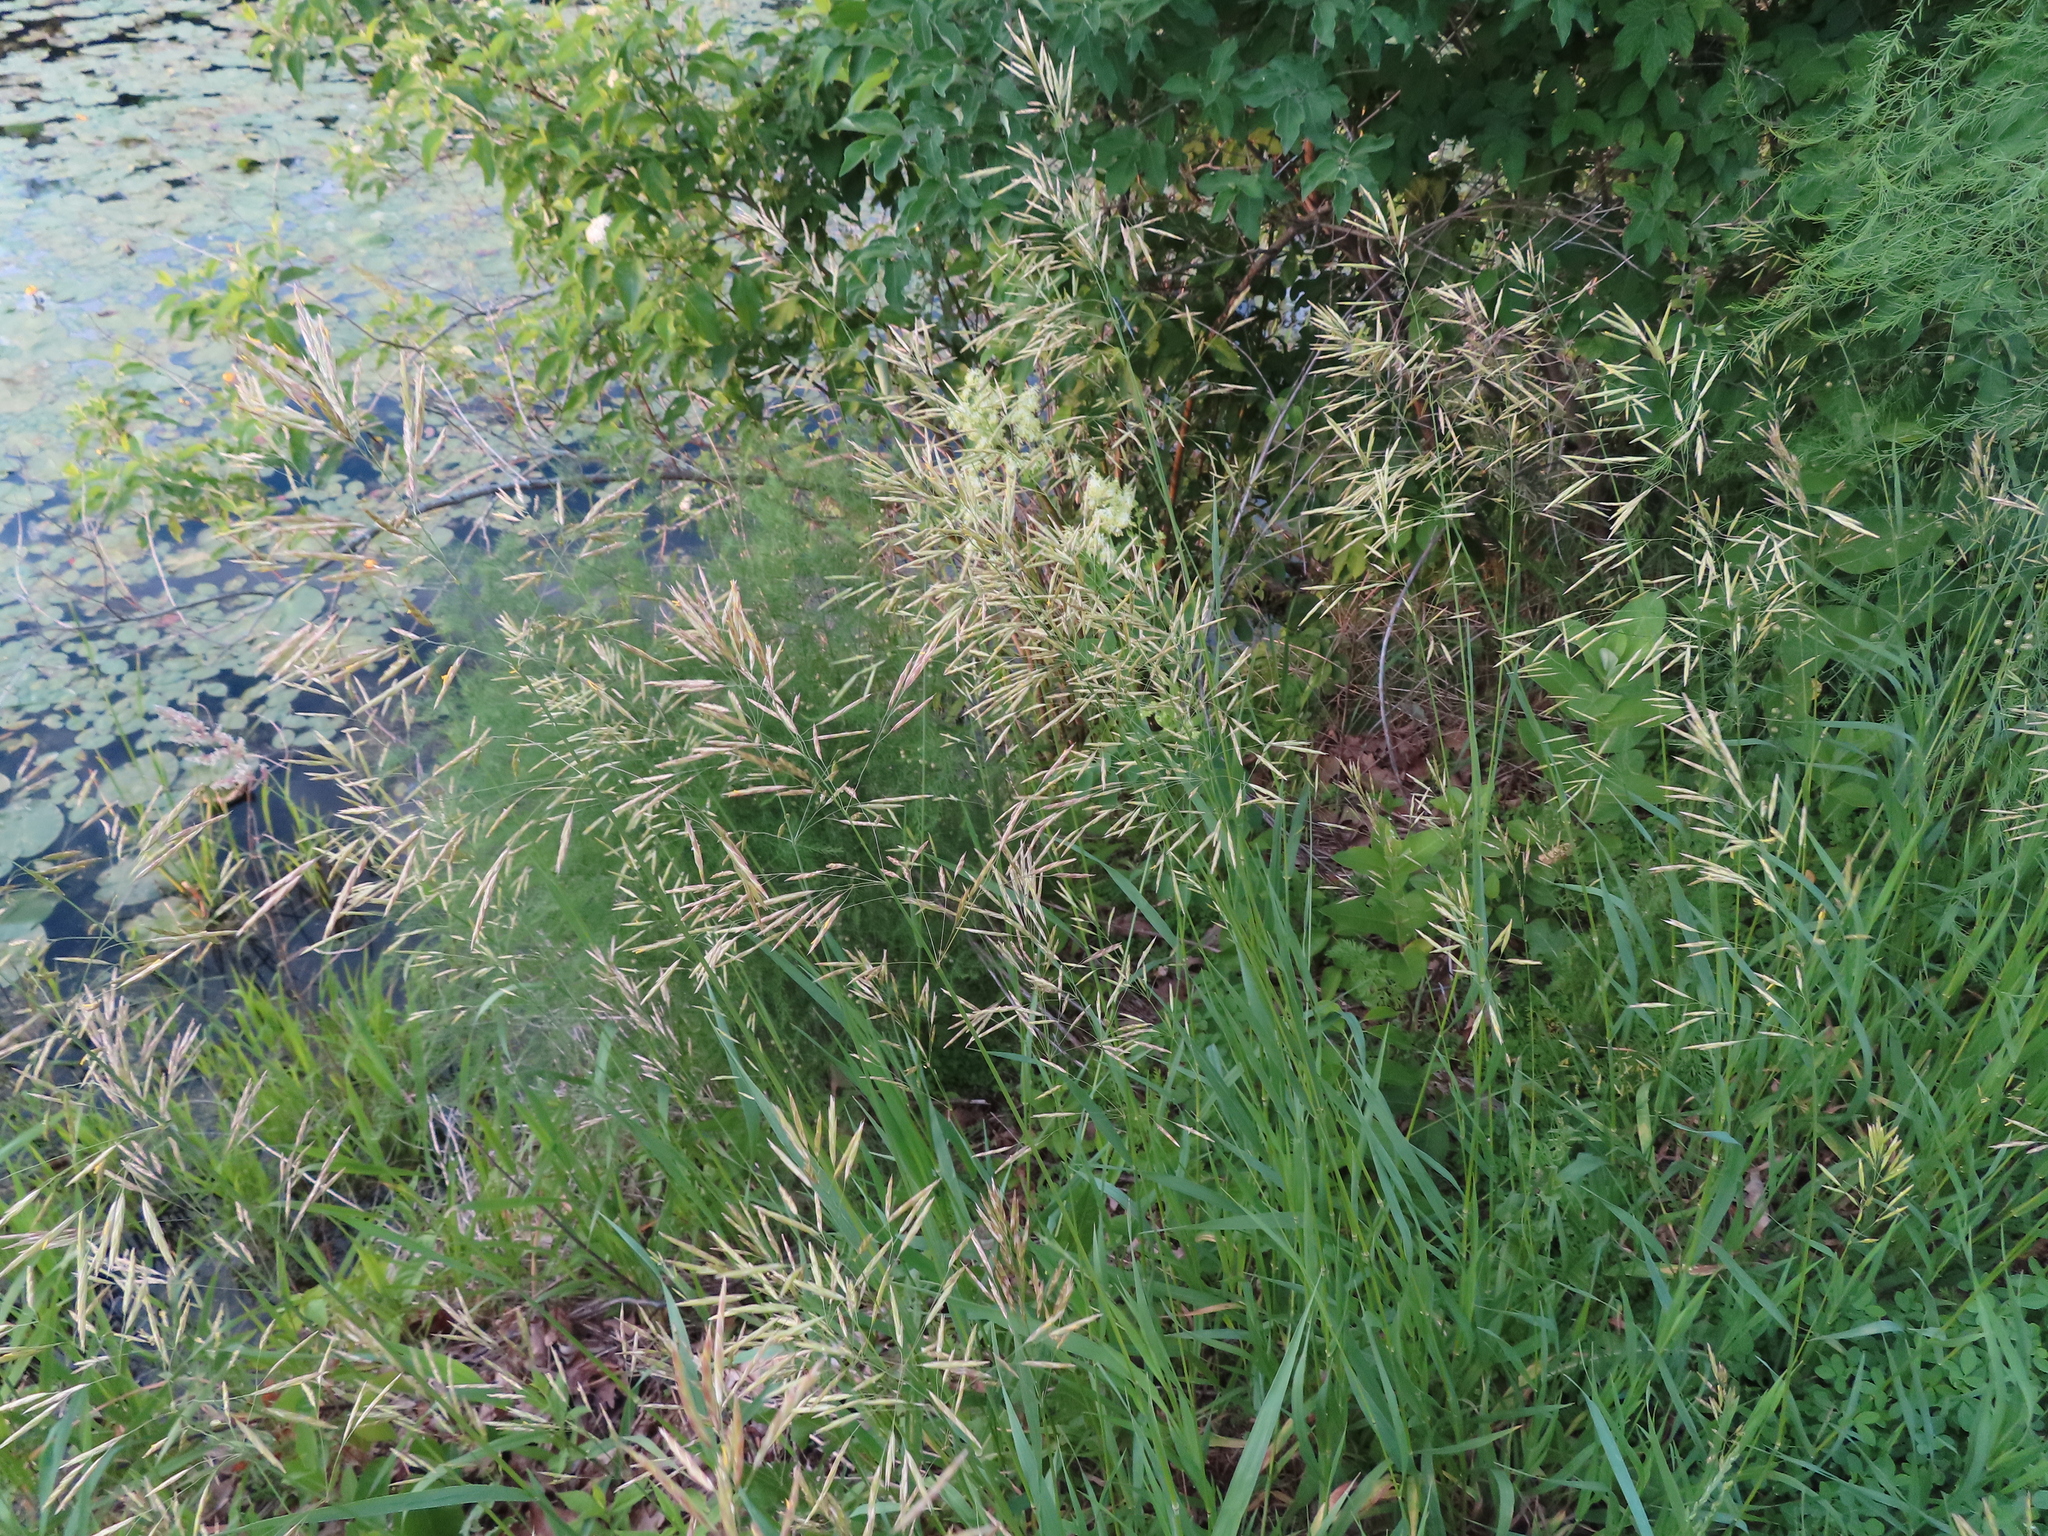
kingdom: Plantae
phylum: Tracheophyta
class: Liliopsida
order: Poales
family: Poaceae
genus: Bromus
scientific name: Bromus inermis
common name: Smooth brome
